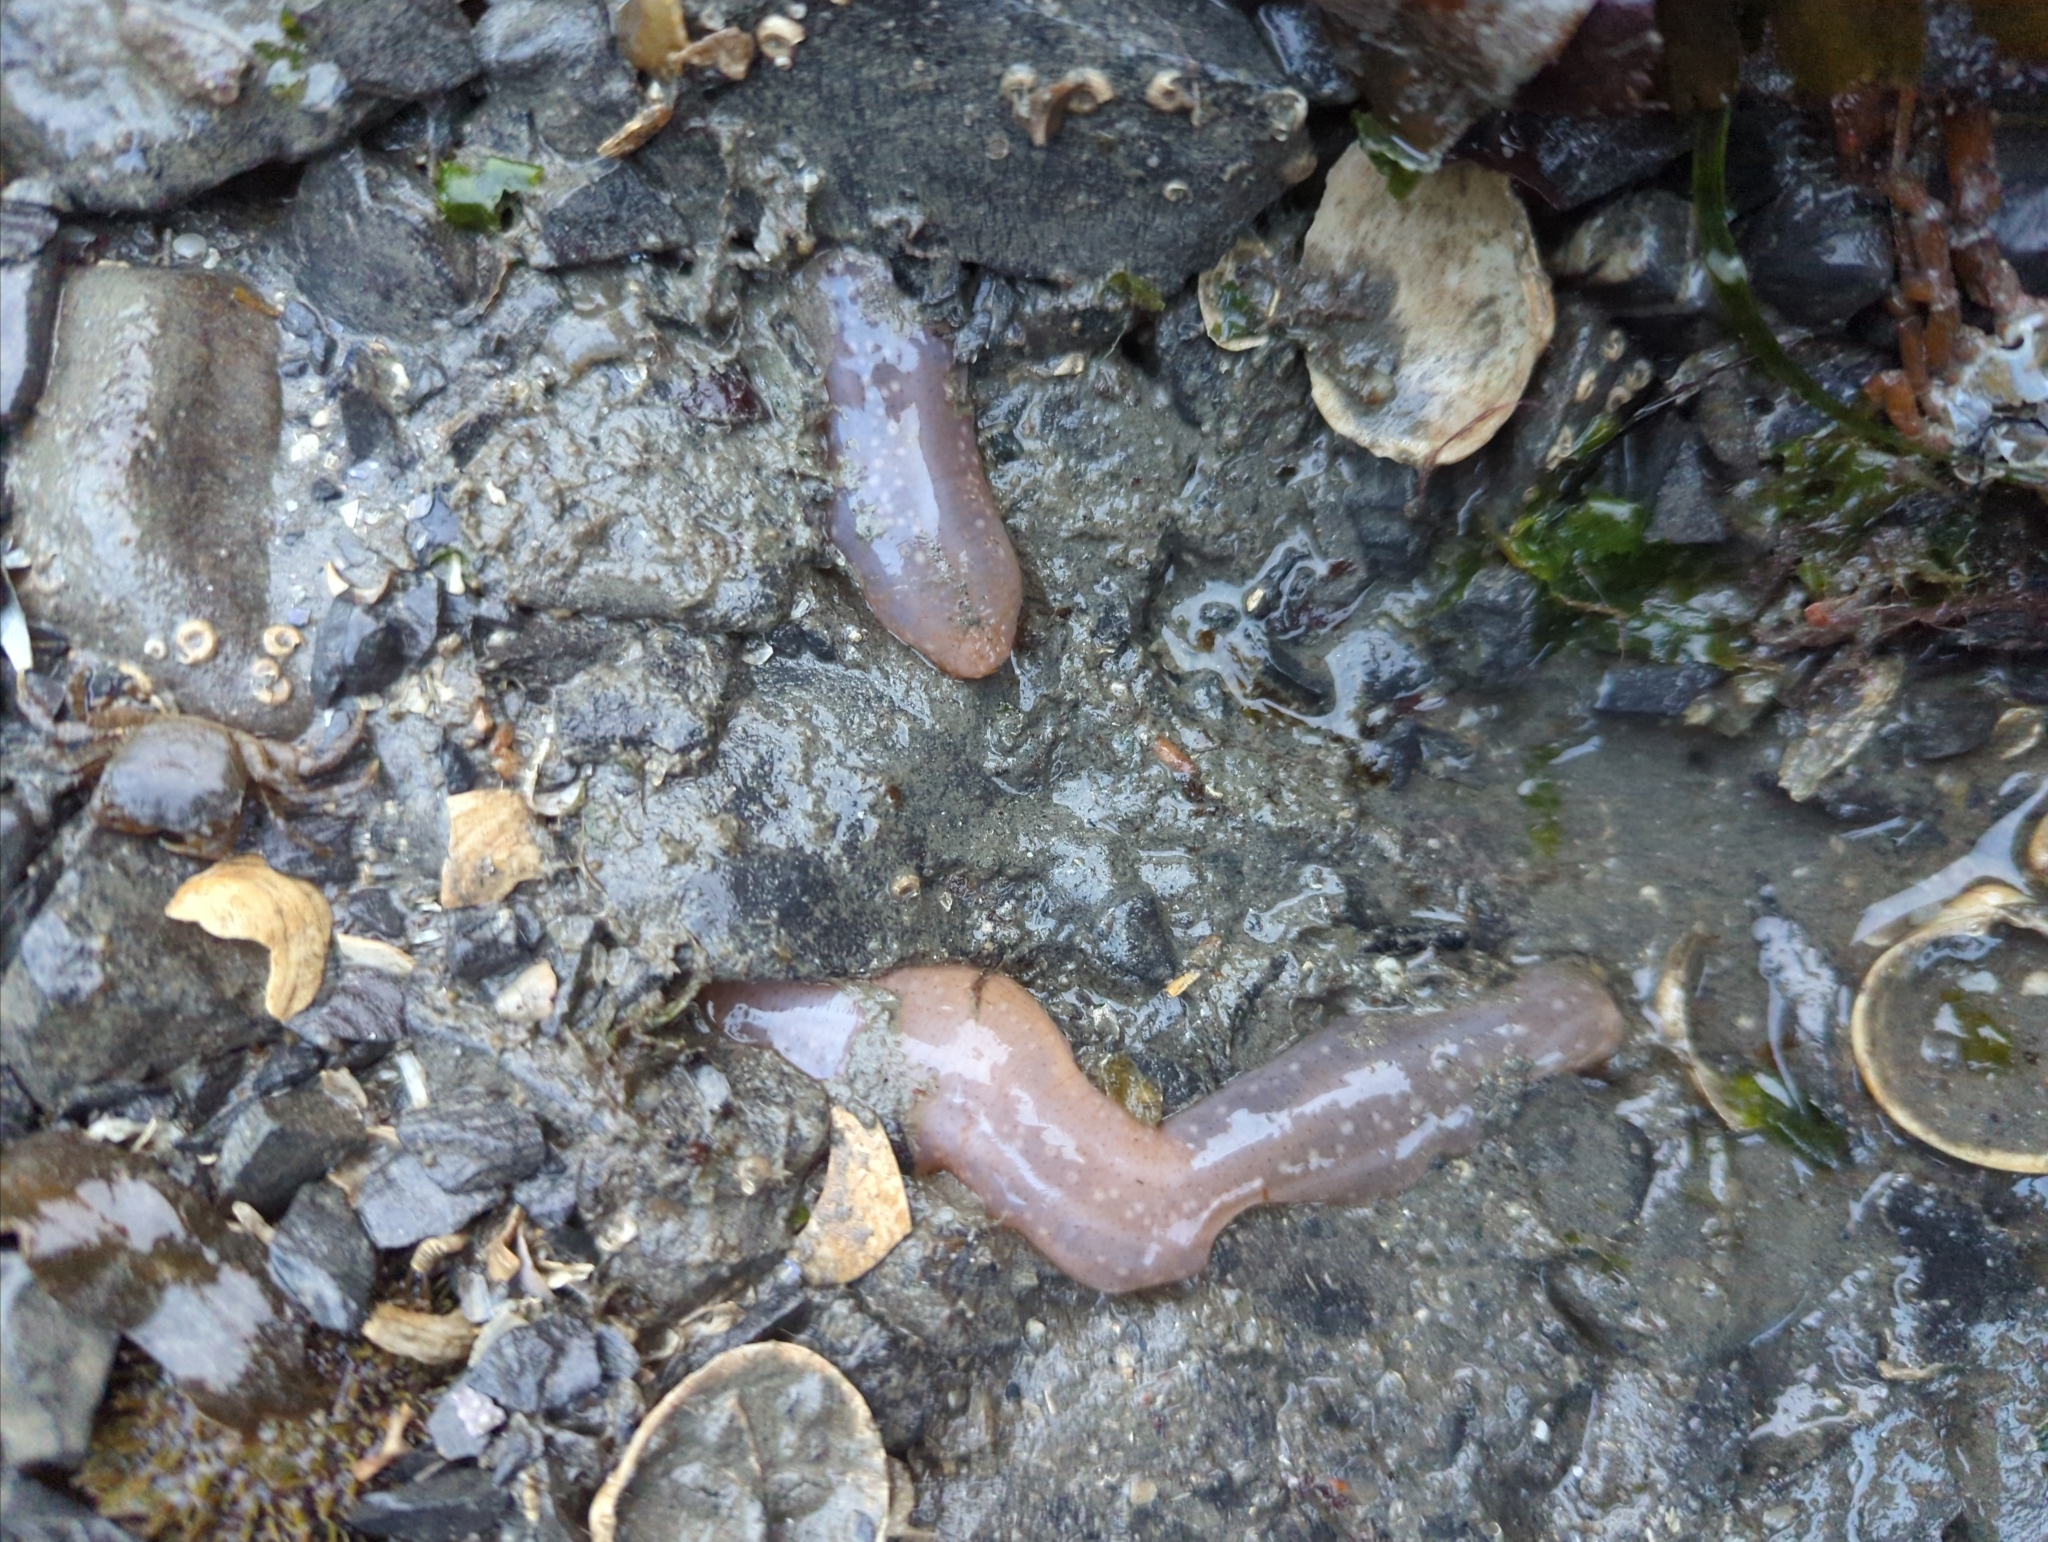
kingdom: Animalia
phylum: Echinodermata
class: Holothuroidea
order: Apodida
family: Chiridotidae
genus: Chiridota
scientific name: Chiridota discolor
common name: Jellybean footless sea cucumber
